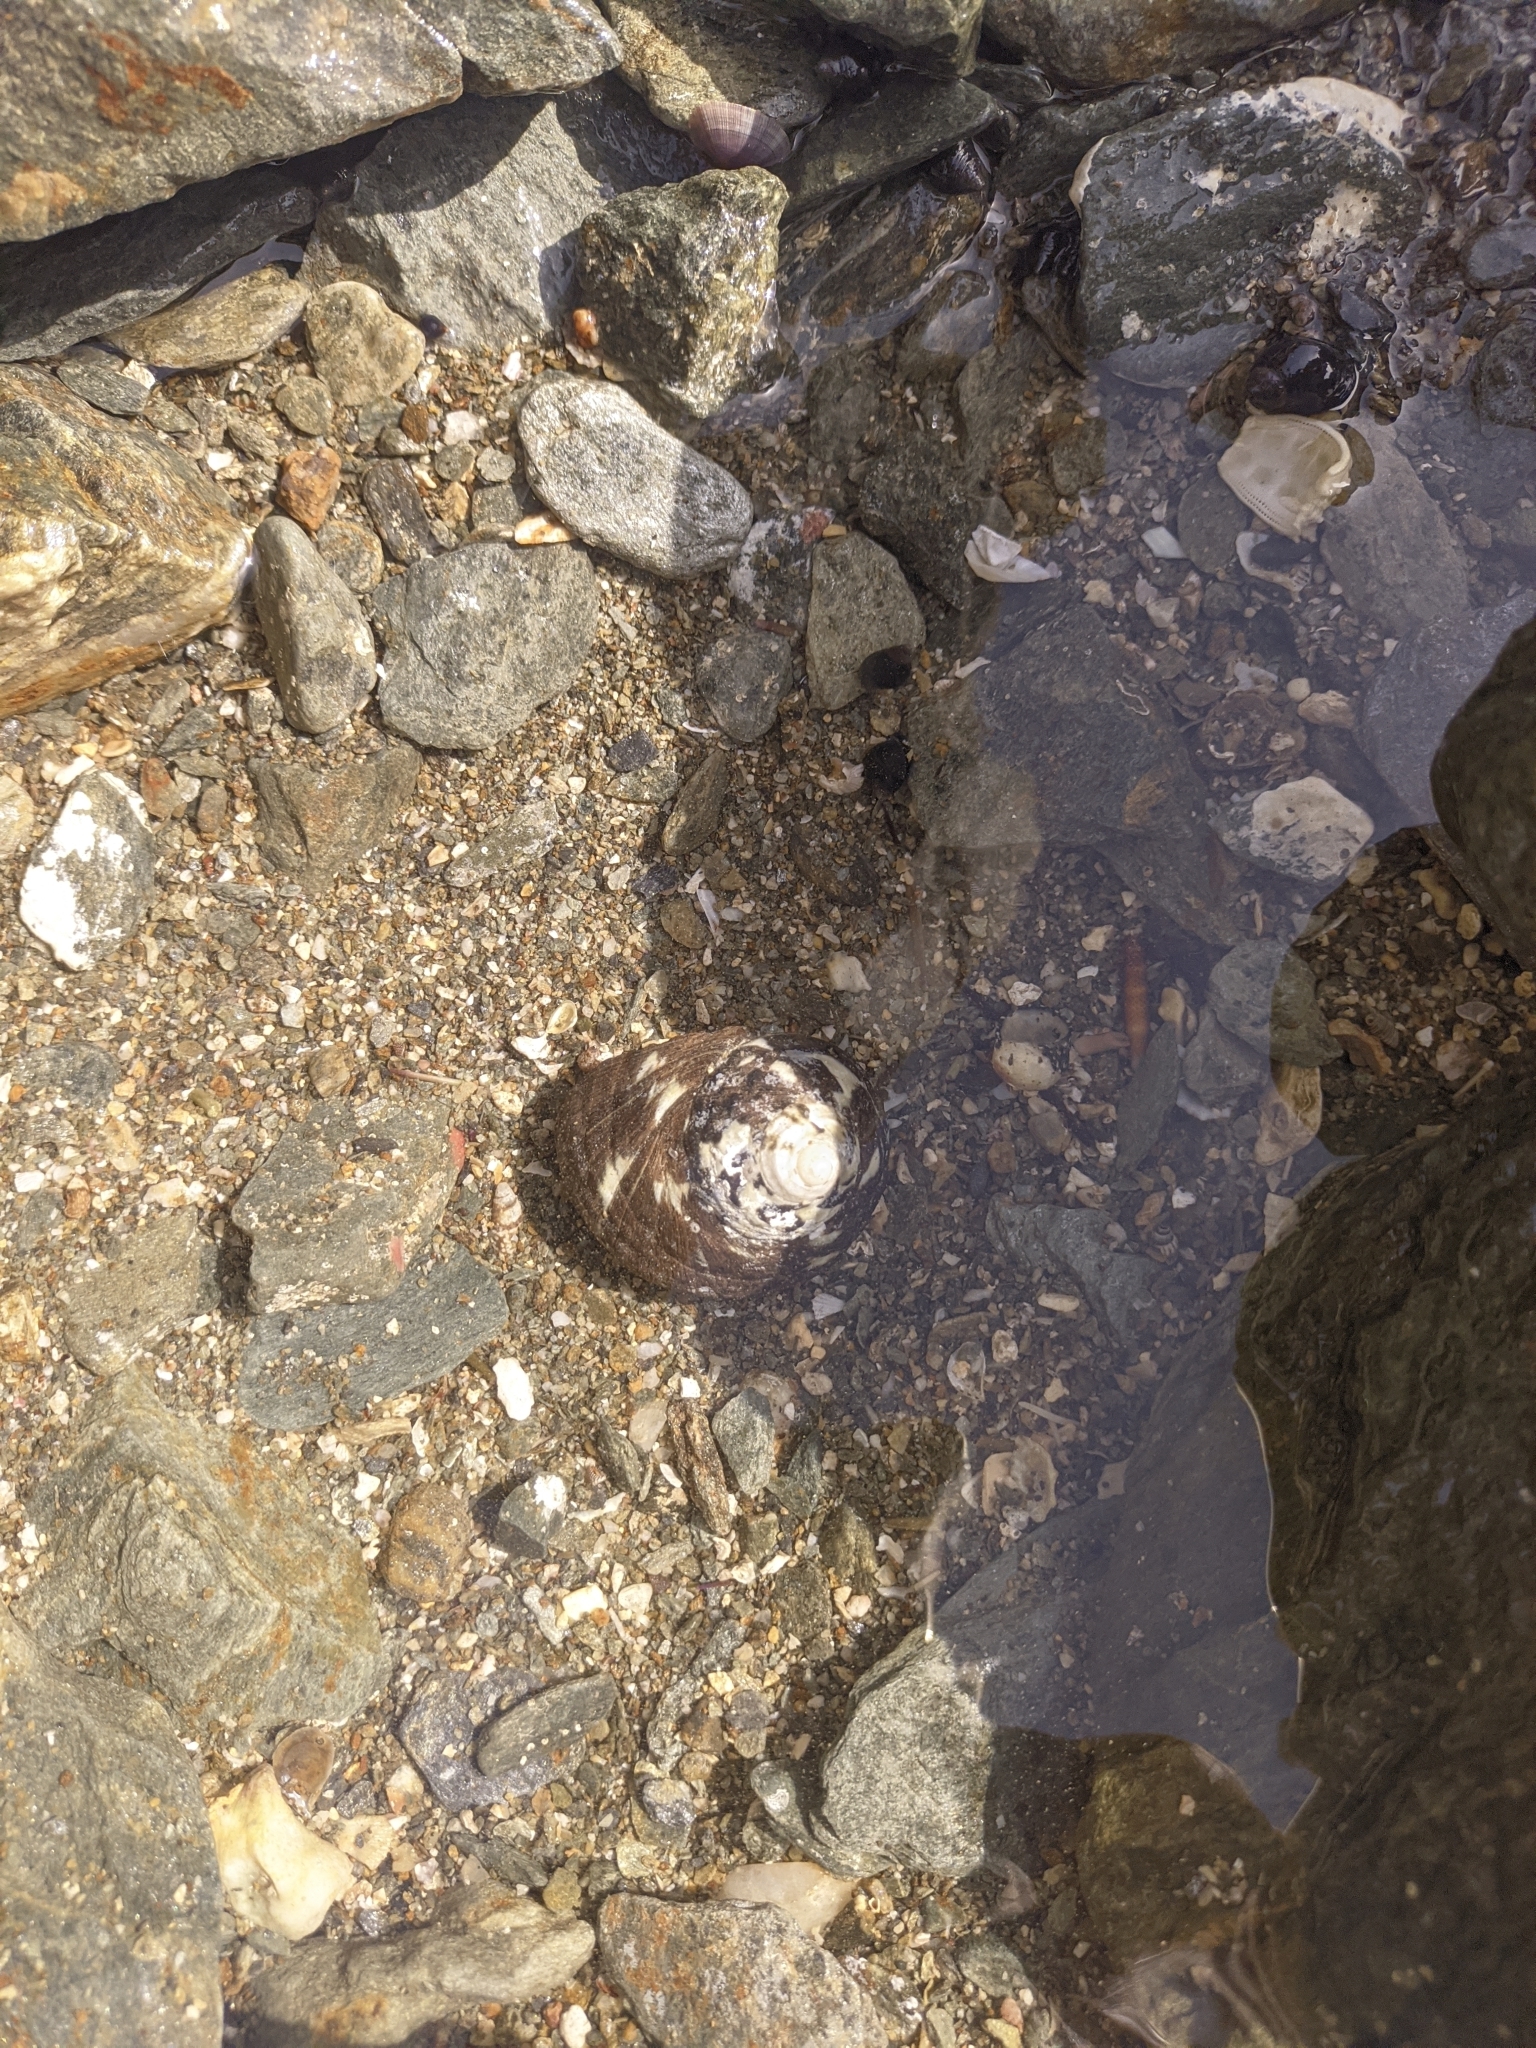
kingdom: Animalia
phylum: Mollusca
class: Gastropoda
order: Trochida
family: Tegulidae
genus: Cittarium
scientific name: Cittarium pica
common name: West indian topshell
